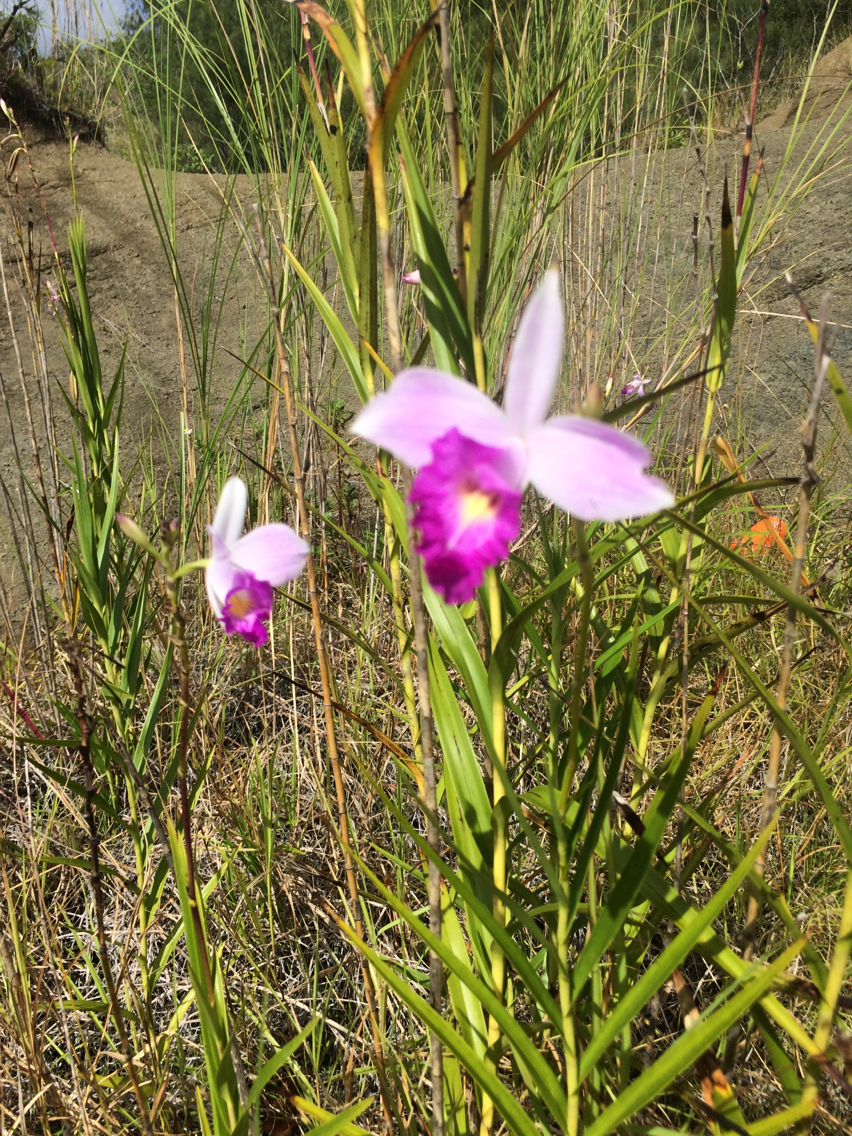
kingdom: Plantae
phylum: Tracheophyta
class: Liliopsida
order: Asparagales
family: Orchidaceae
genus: Arundina
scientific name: Arundina graminifolia
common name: Bamboo orchid
